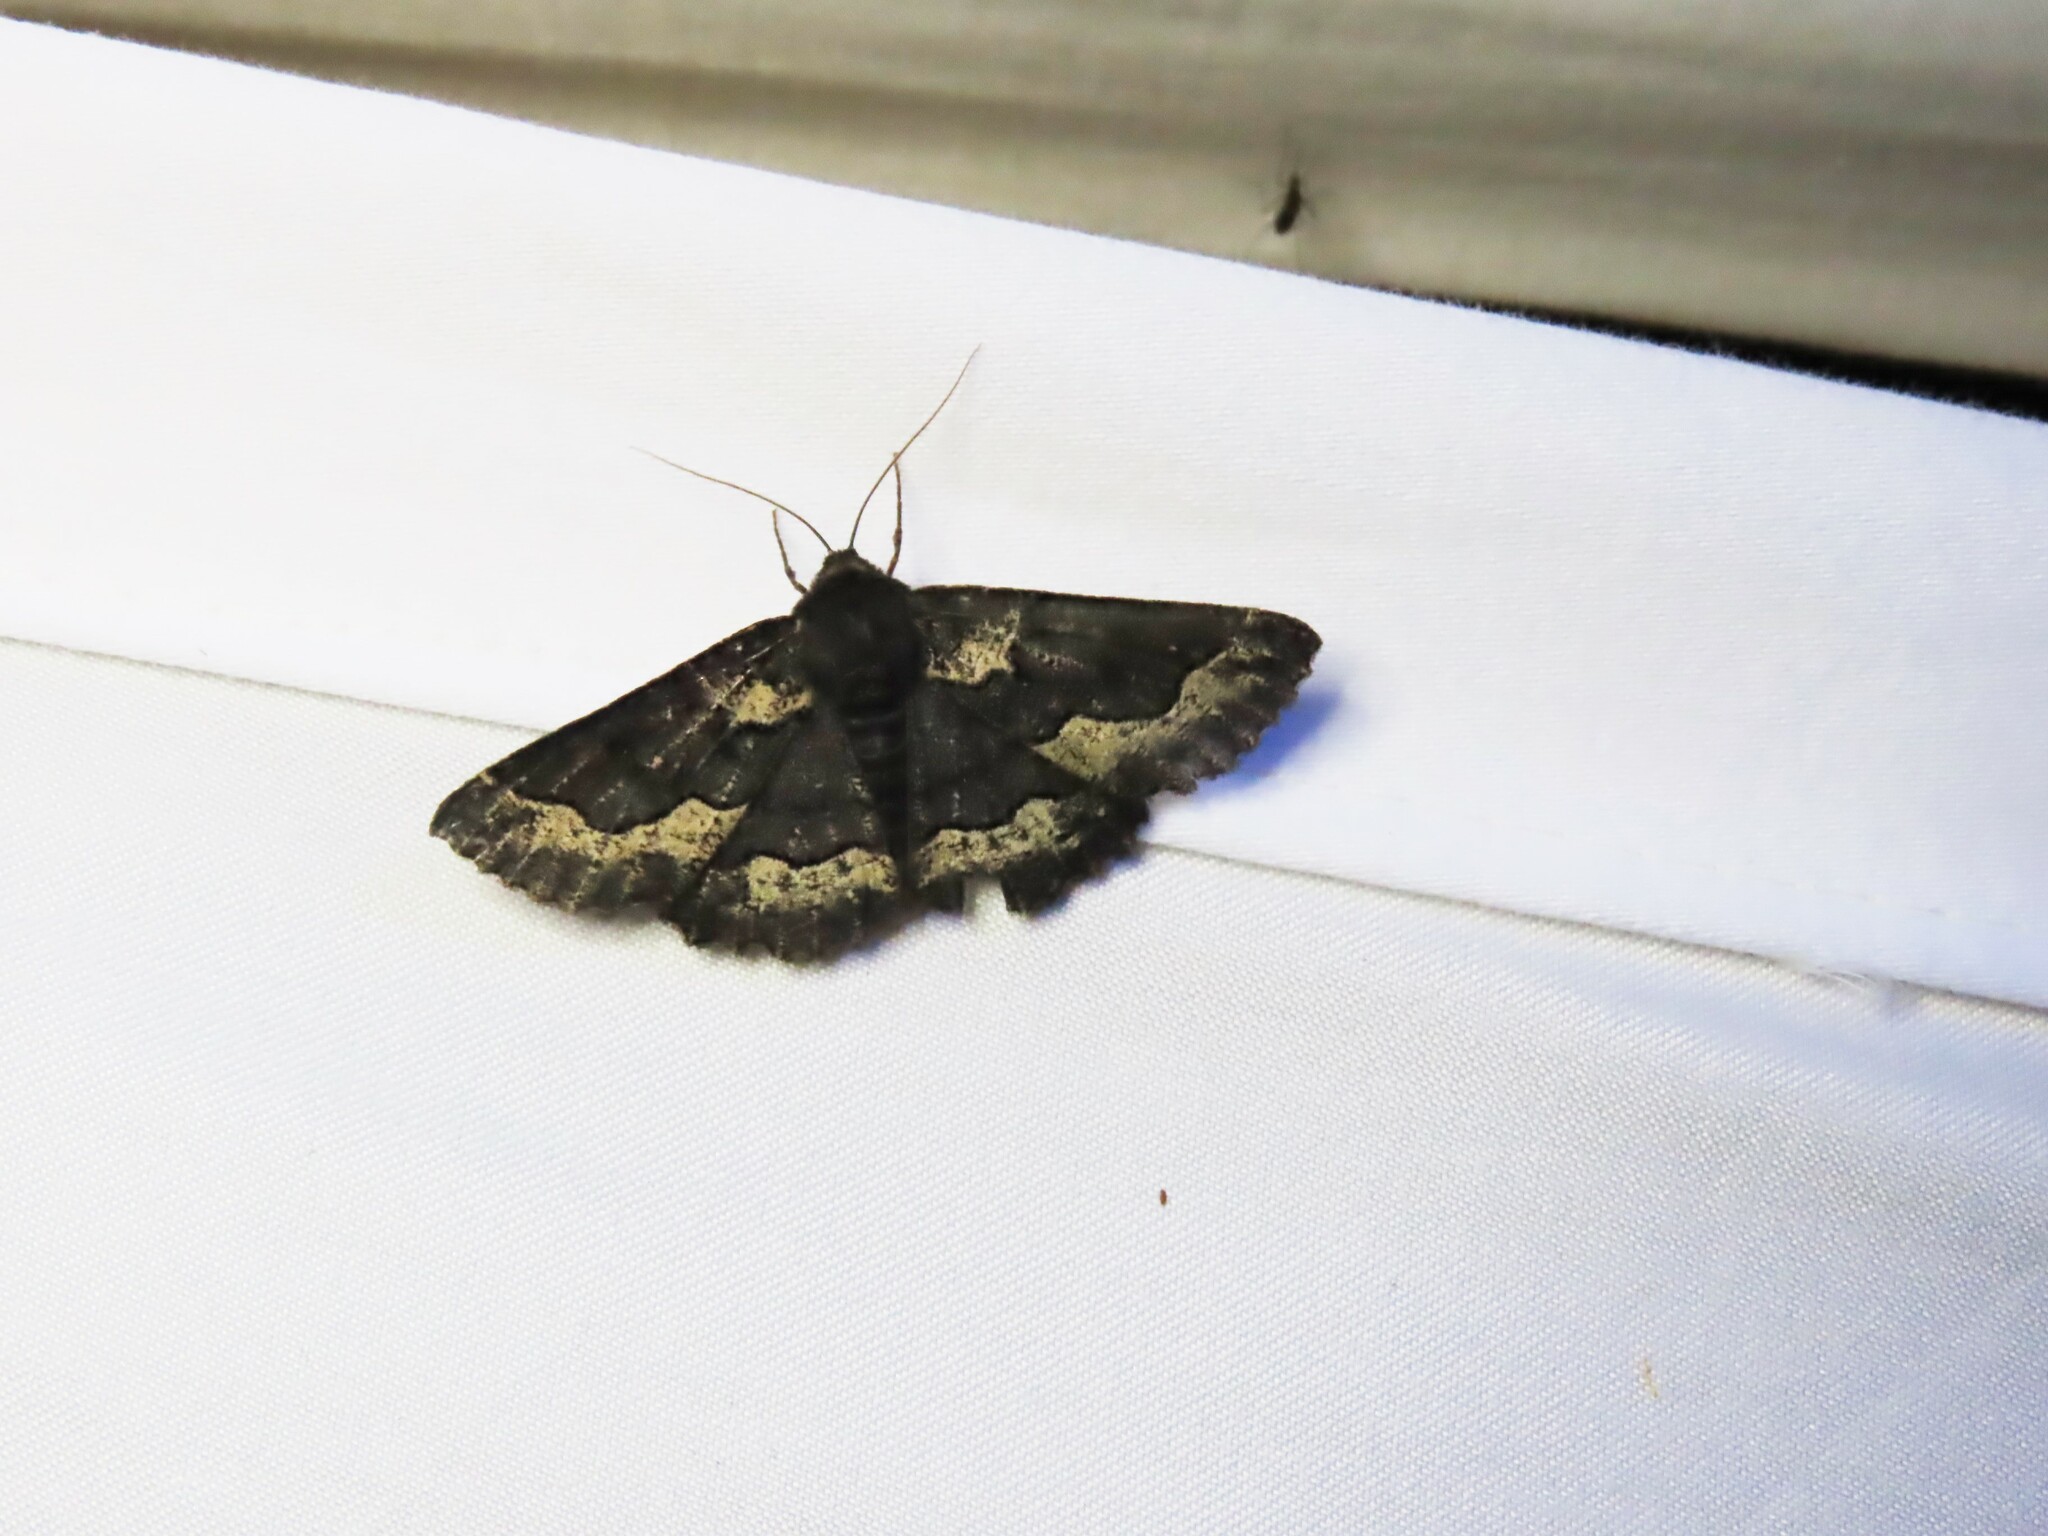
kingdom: Animalia
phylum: Arthropoda
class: Insecta
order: Lepidoptera
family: Geometridae
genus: Melanodes
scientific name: Melanodes anthracitaria
